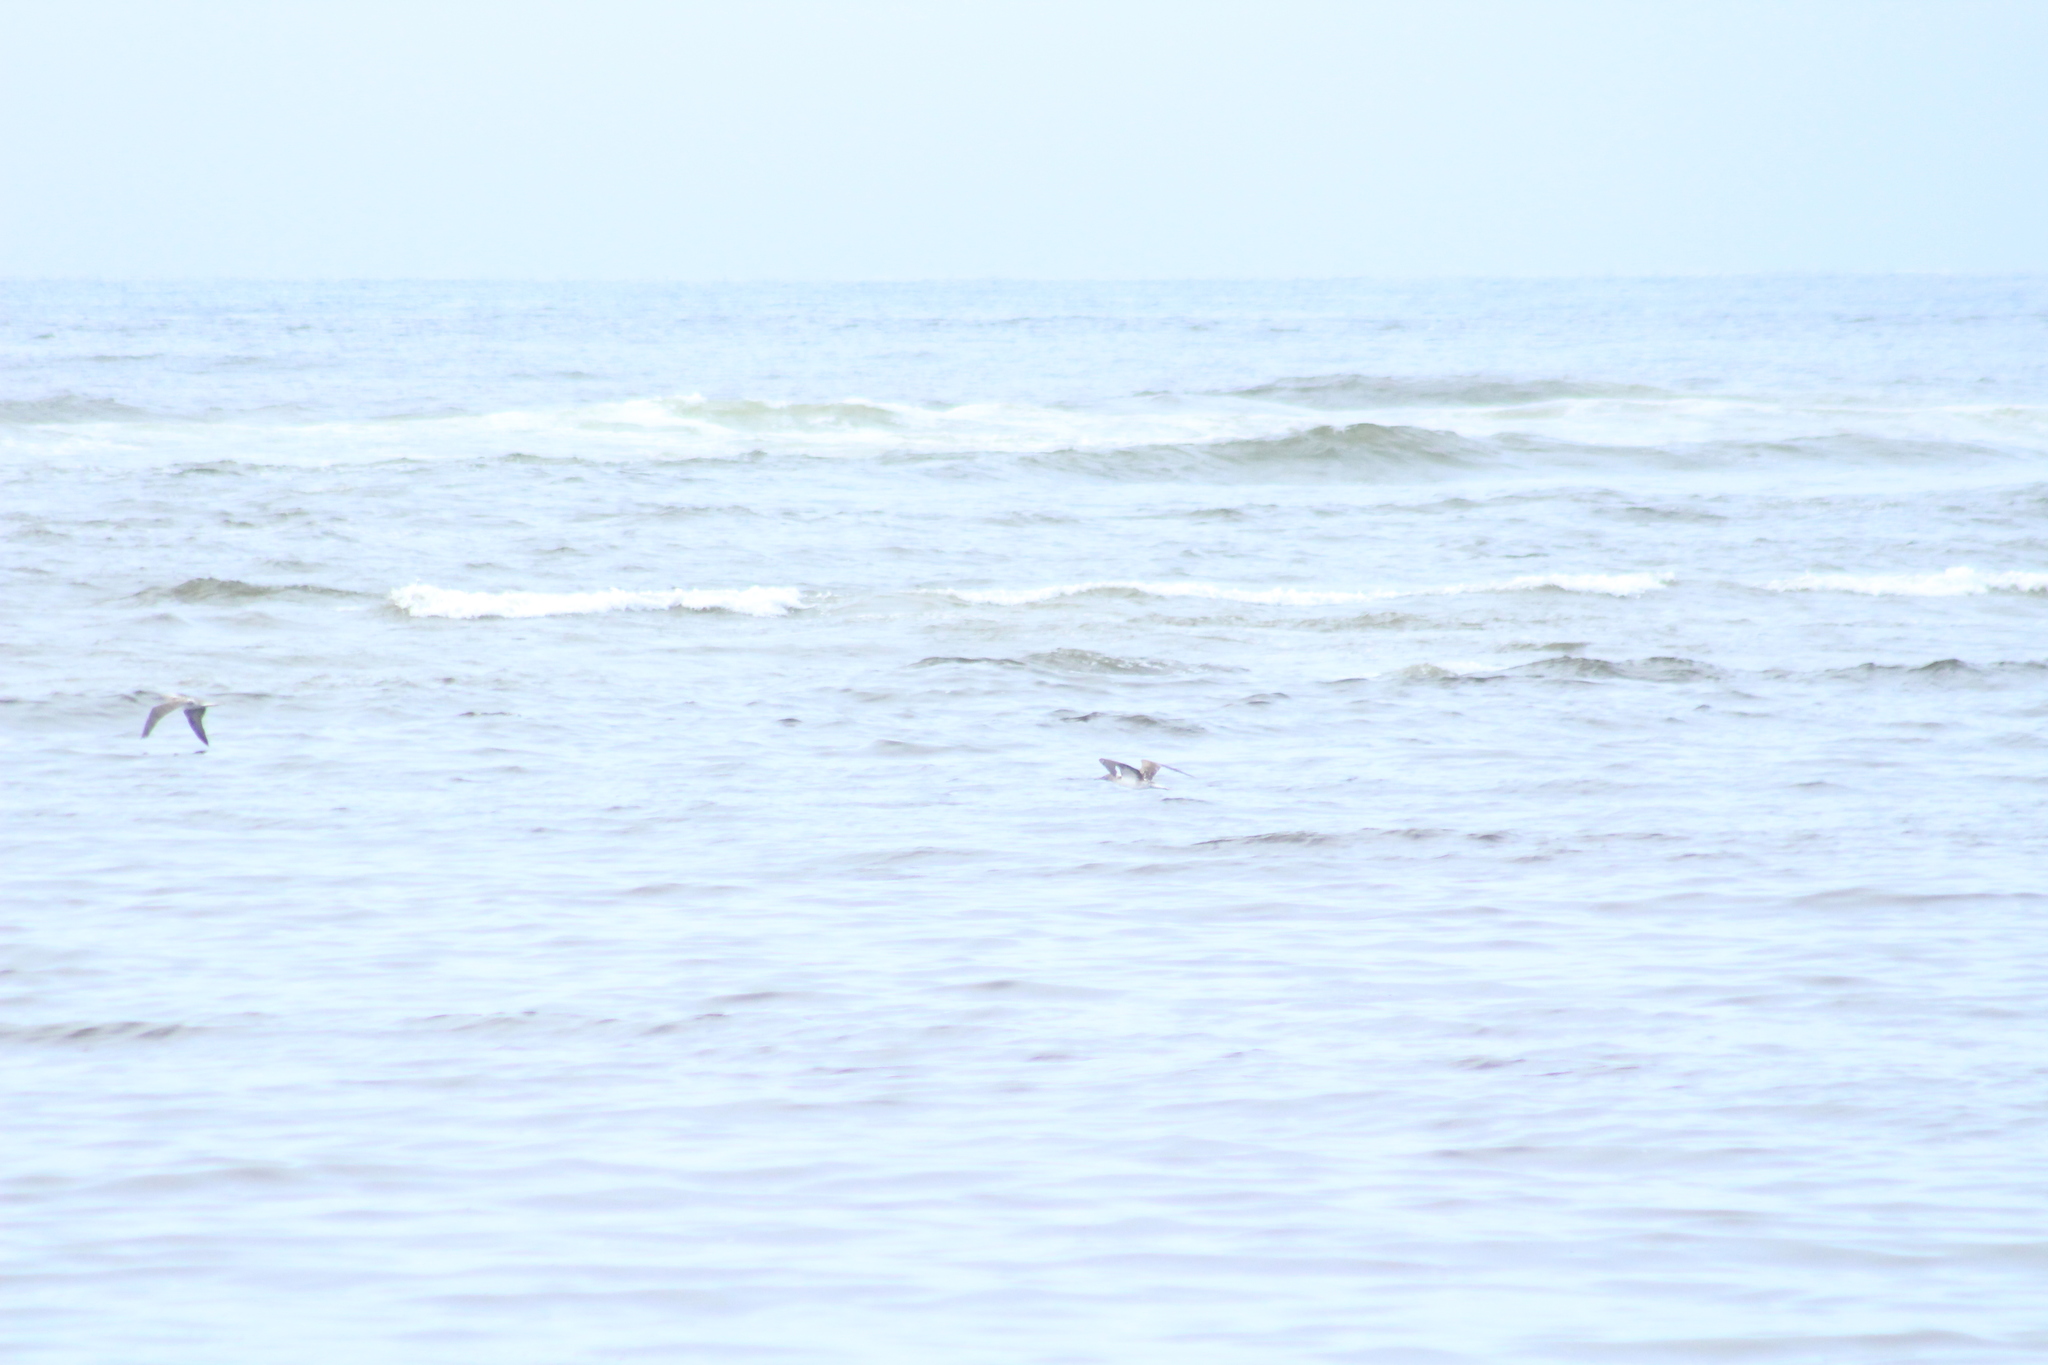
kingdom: Animalia
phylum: Chordata
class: Aves
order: Suliformes
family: Sulidae
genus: Sula
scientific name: Sula nebouxii
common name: Blue-footed booby
